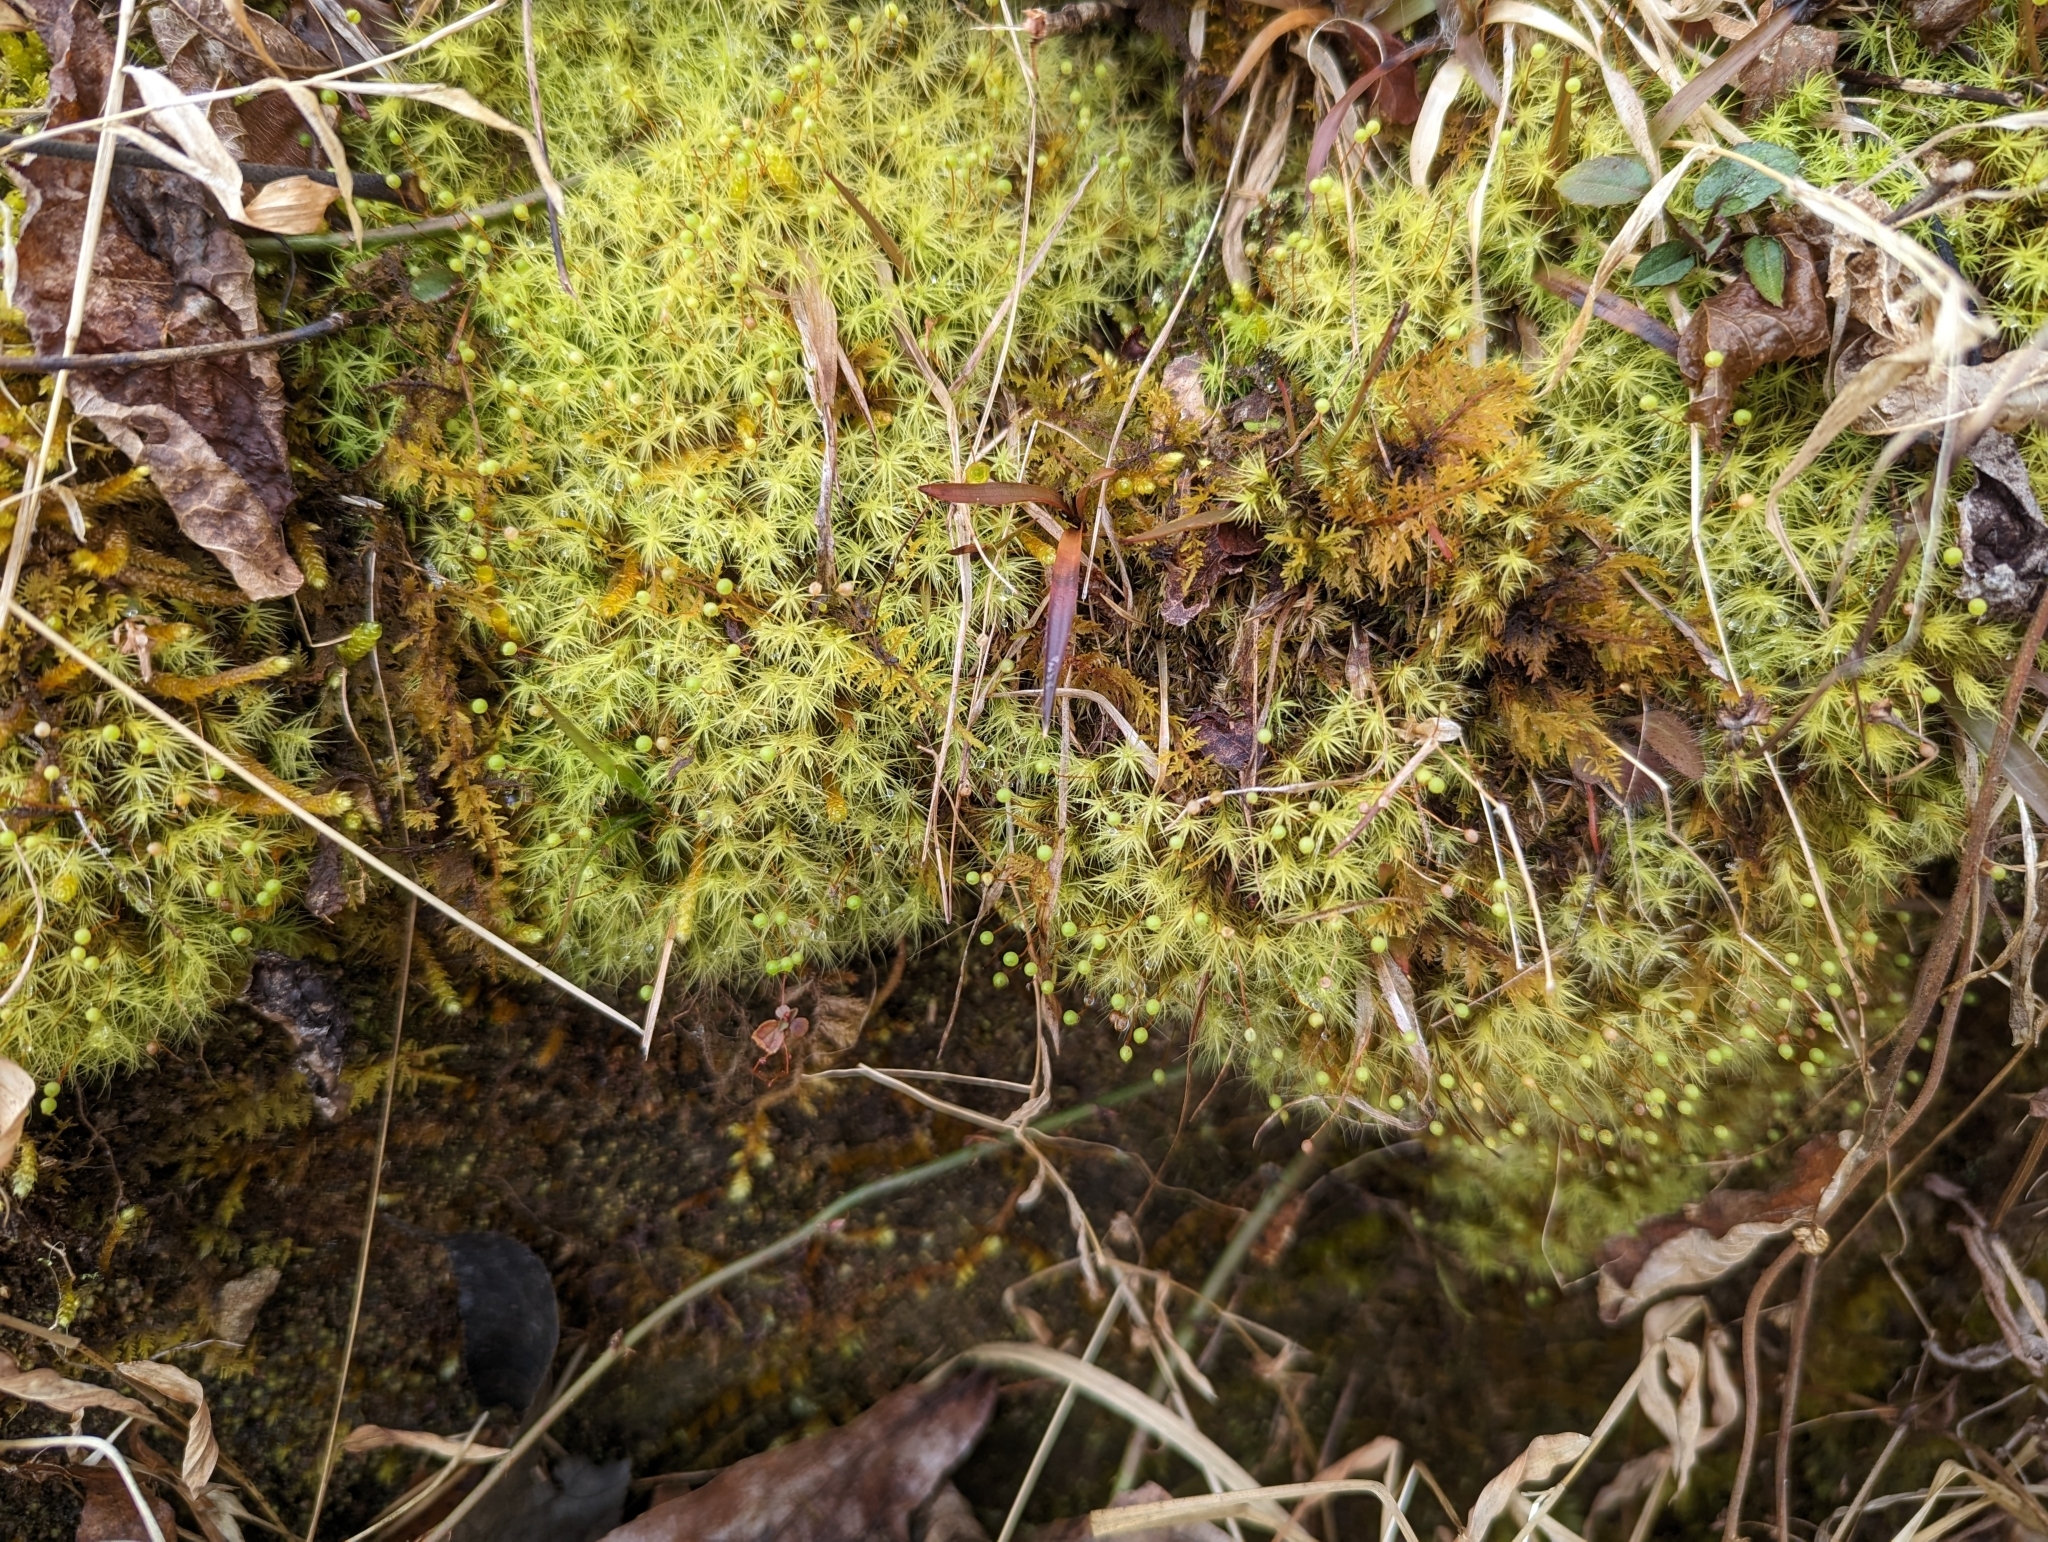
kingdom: Plantae
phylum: Bryophyta
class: Bryopsida
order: Bartramiales
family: Bartramiaceae
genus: Bartramia
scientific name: Bartramia ithyphylla
